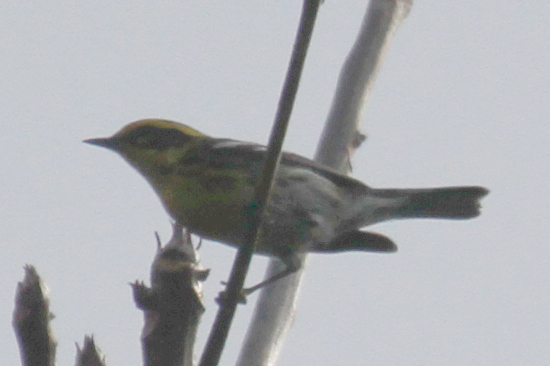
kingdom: Animalia
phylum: Chordata
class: Aves
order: Passeriformes
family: Parulidae
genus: Setophaga
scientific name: Setophaga townsendi
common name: Townsend's warbler
